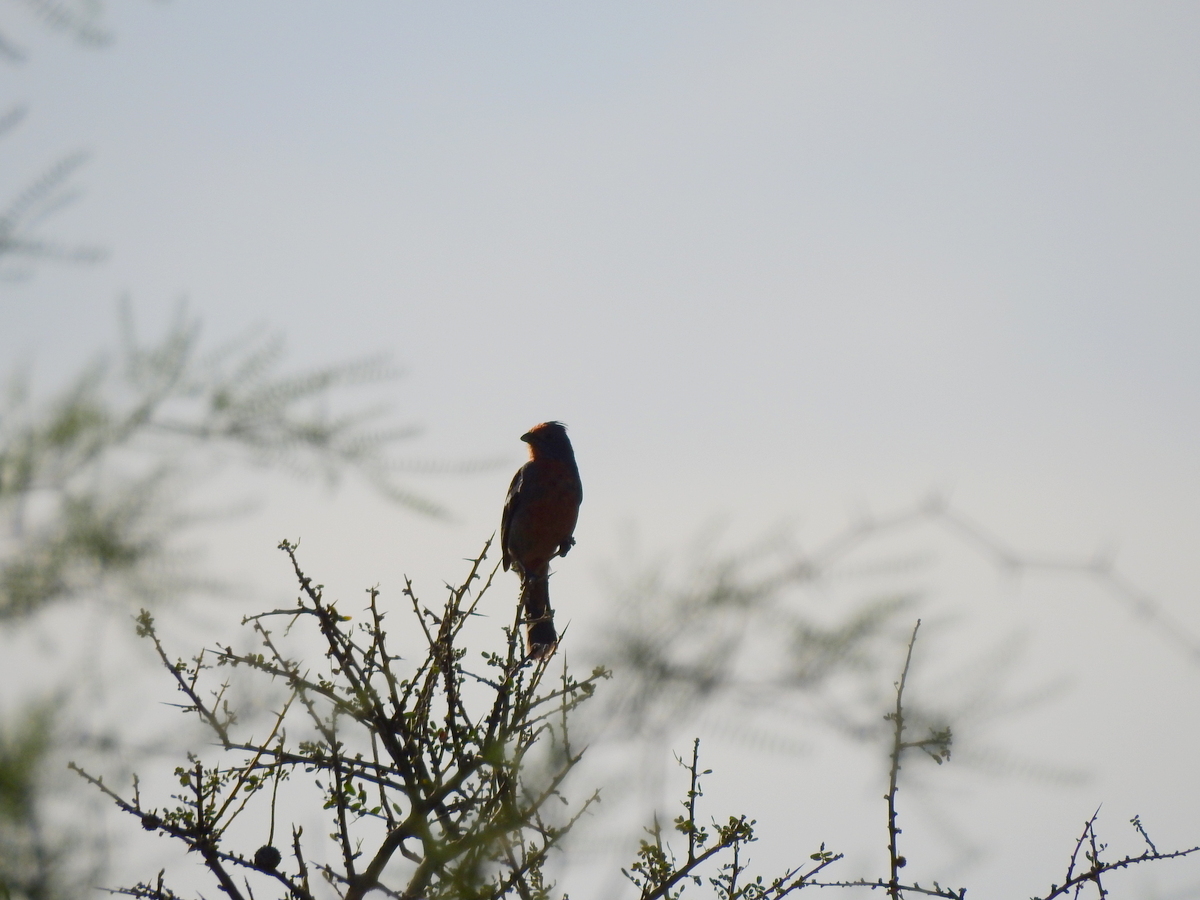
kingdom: Animalia
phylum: Chordata
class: Aves
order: Passeriformes
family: Cotingidae
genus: Phytotoma
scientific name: Phytotoma rutila
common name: White-tipped plantcutter
